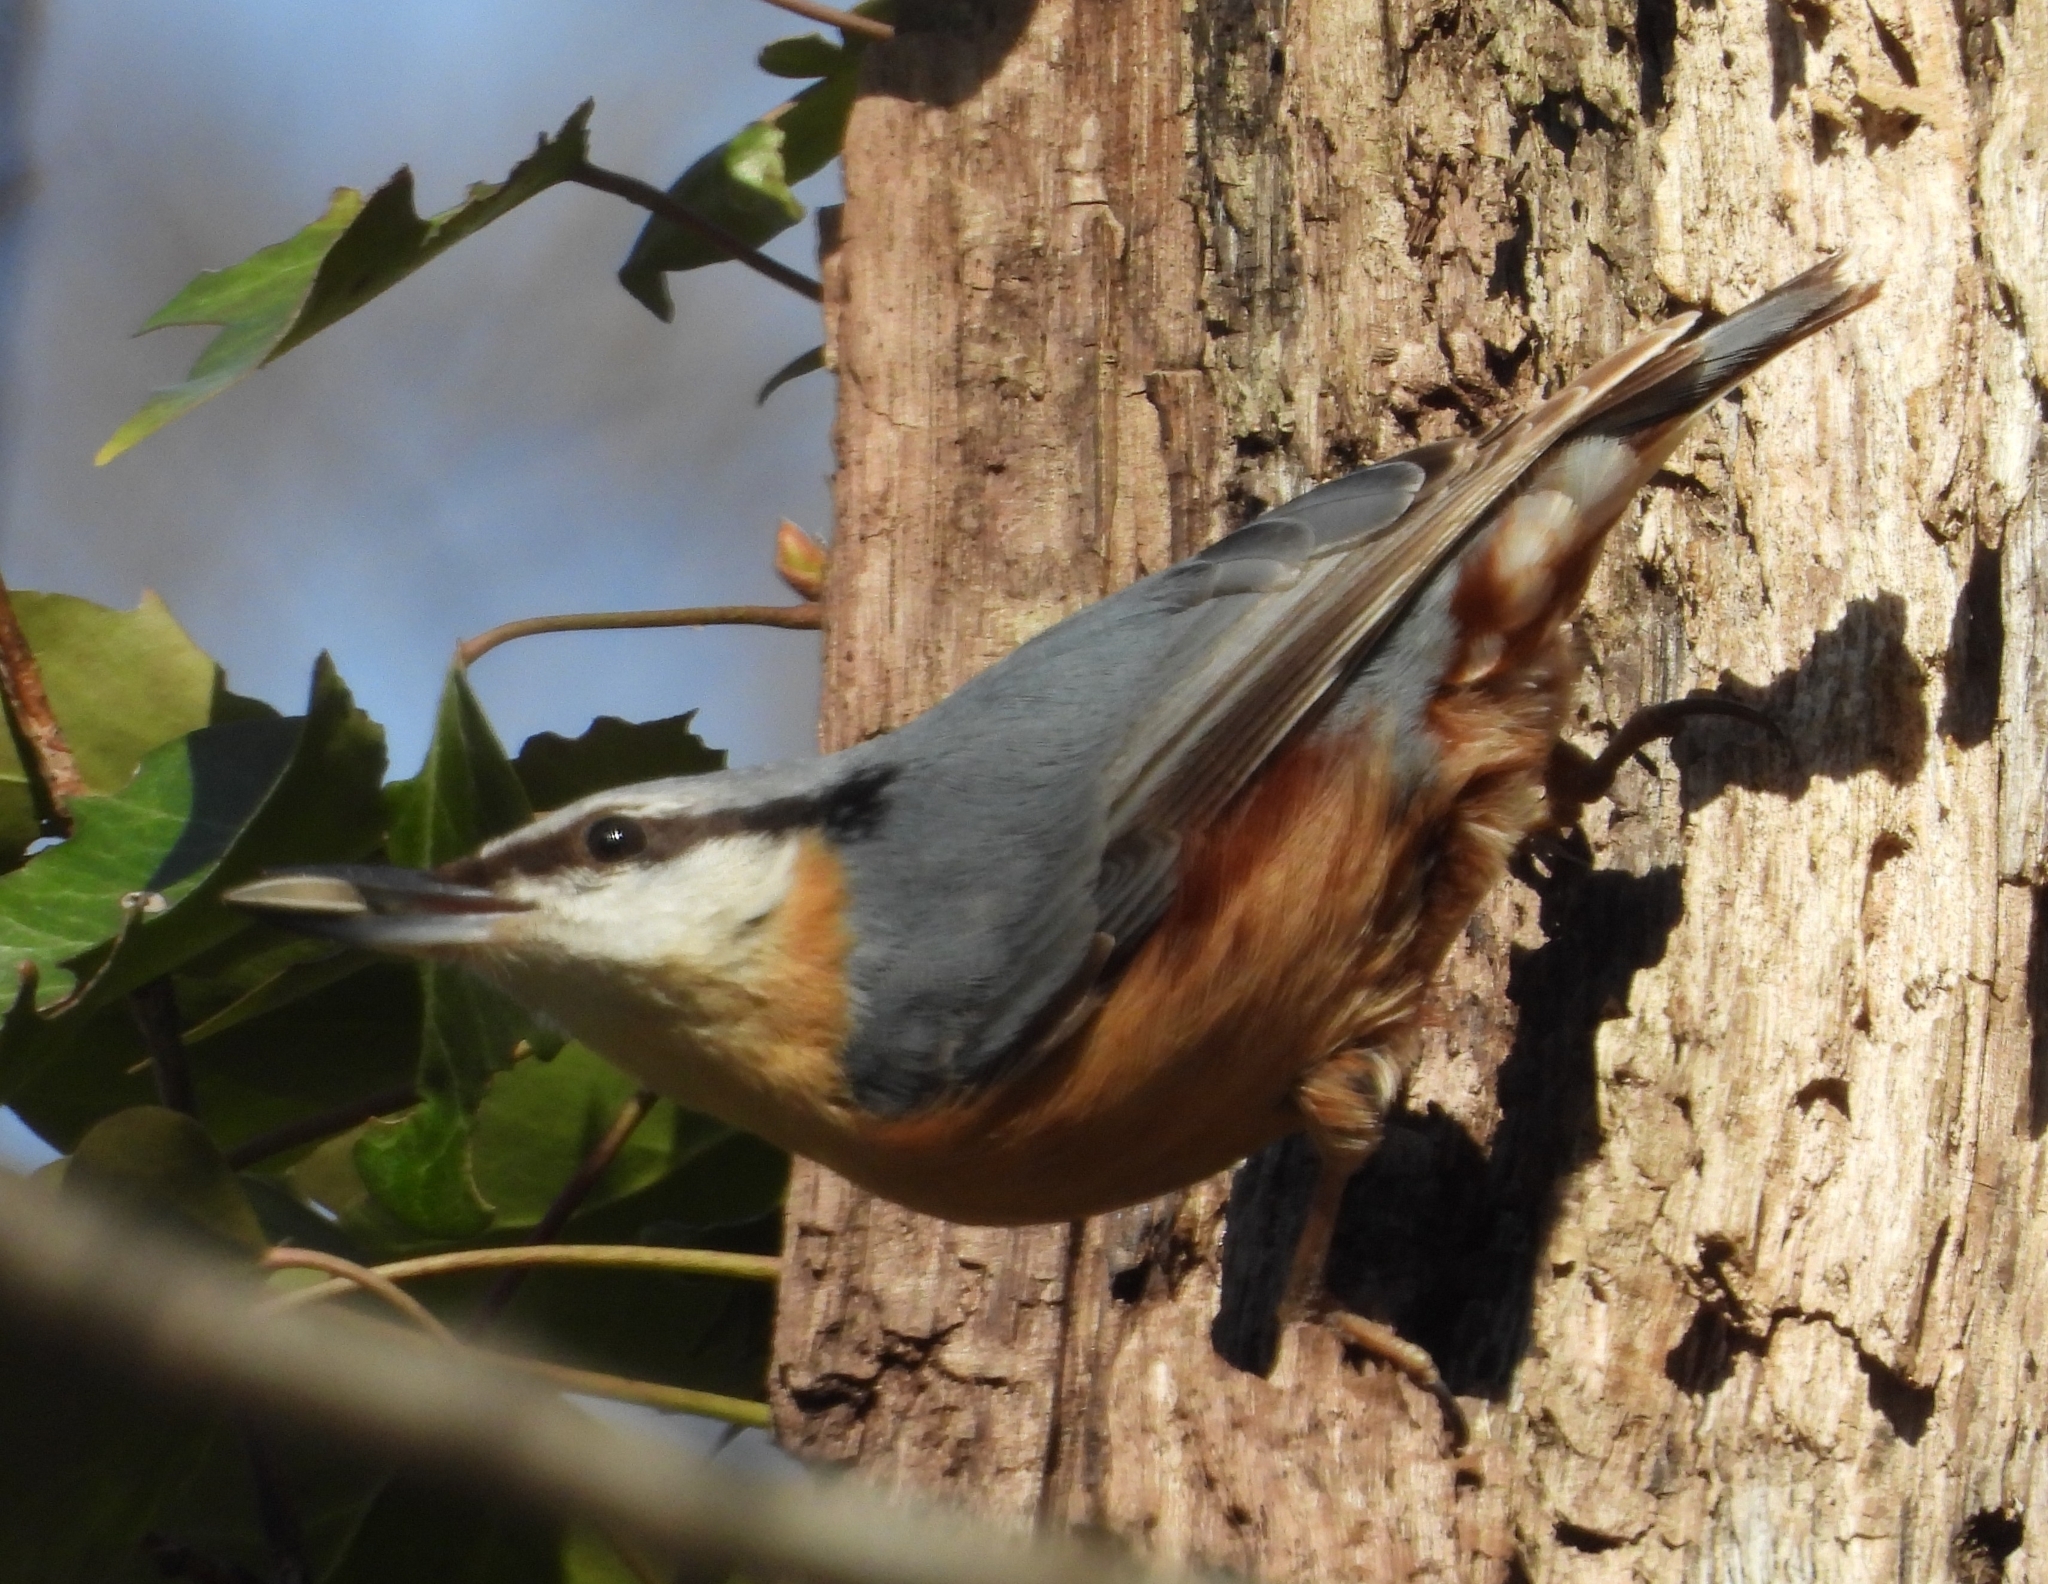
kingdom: Animalia
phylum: Chordata
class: Aves
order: Passeriformes
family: Sittidae
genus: Sitta
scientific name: Sitta europaea
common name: Eurasian nuthatch
